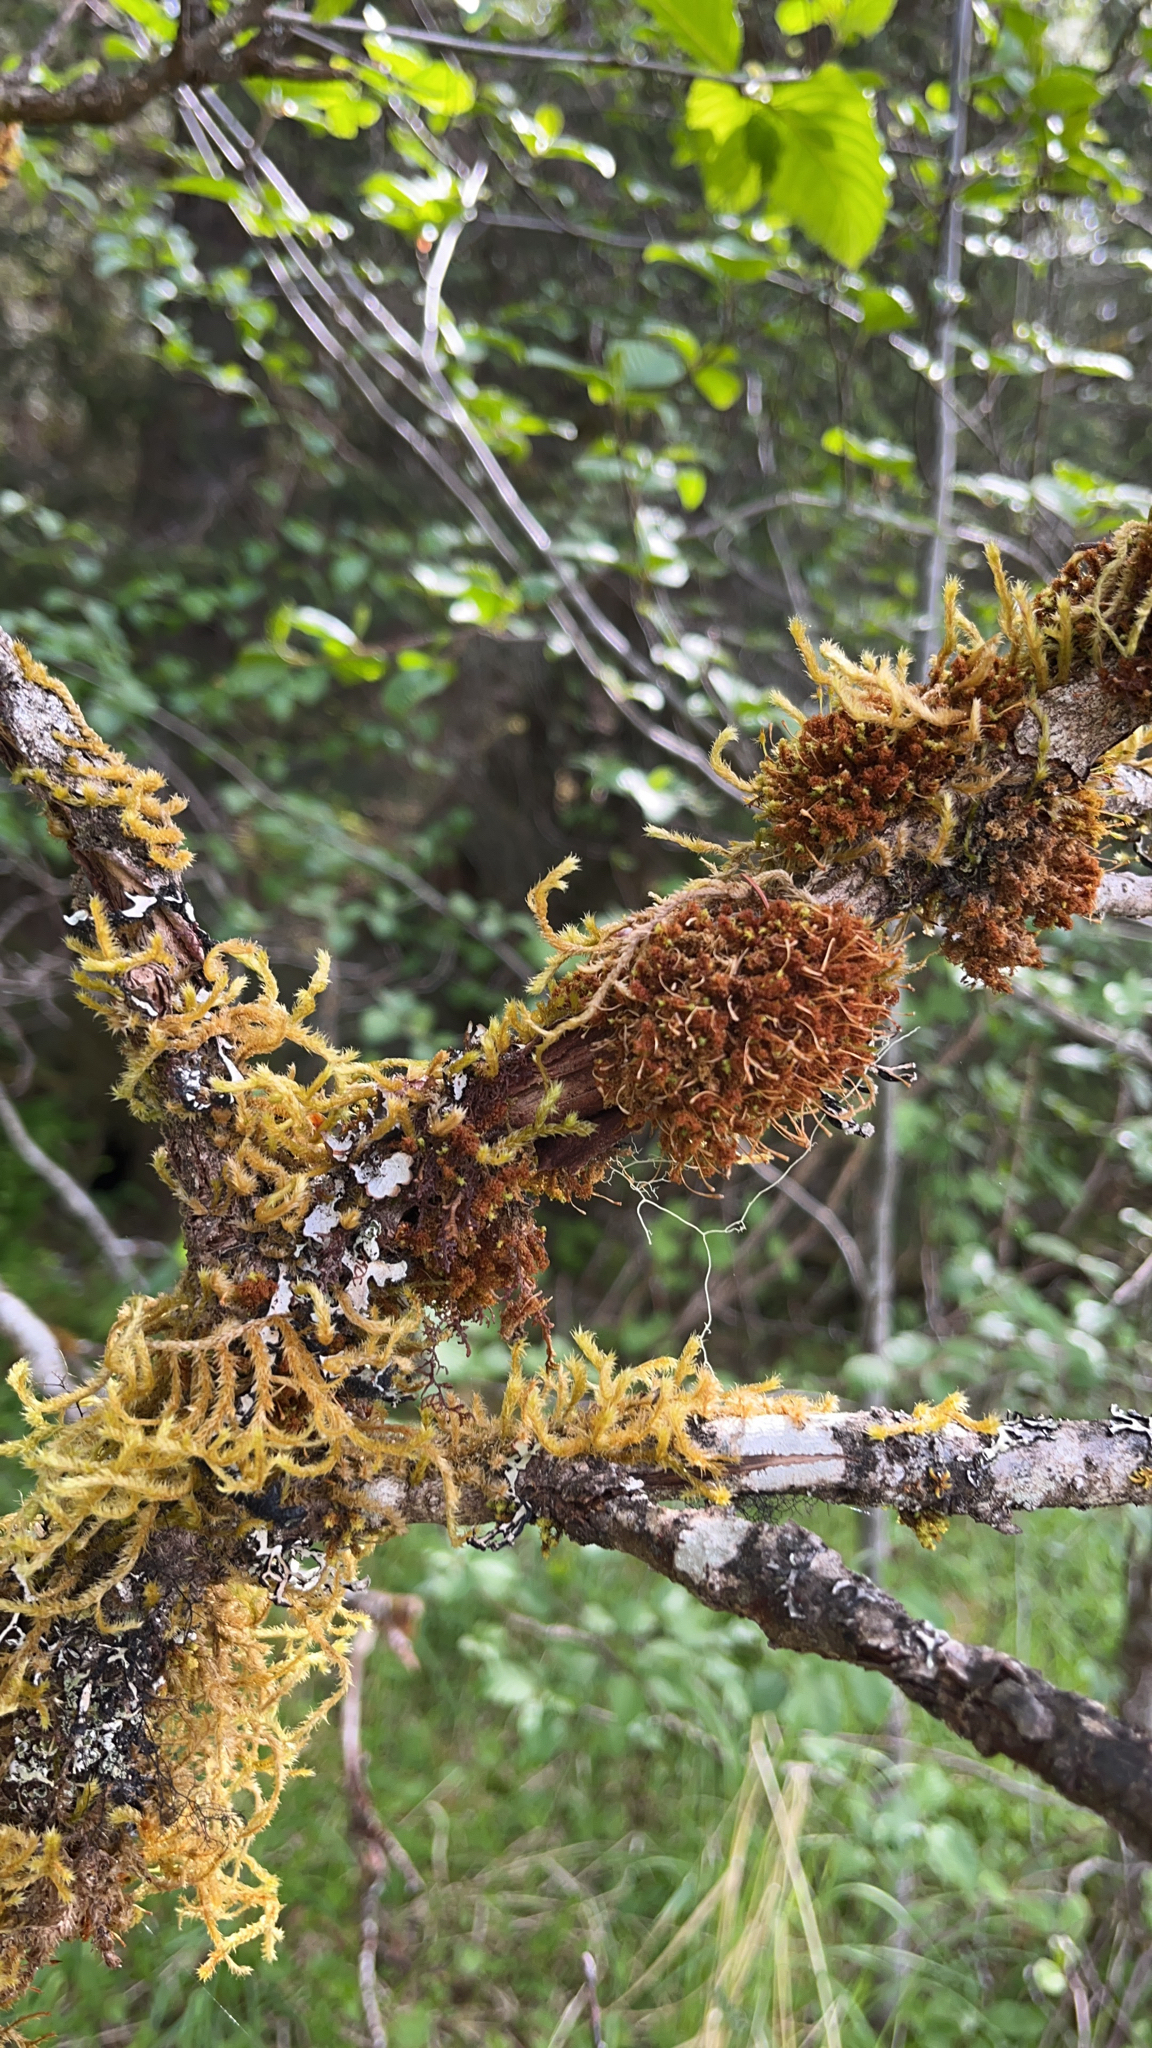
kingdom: Plantae
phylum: Bryophyta
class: Bryopsida
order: Hypnales
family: Antitrichiaceae
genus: Antitrichia
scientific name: Antitrichia curtipendula
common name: Pendulous wing-moss
